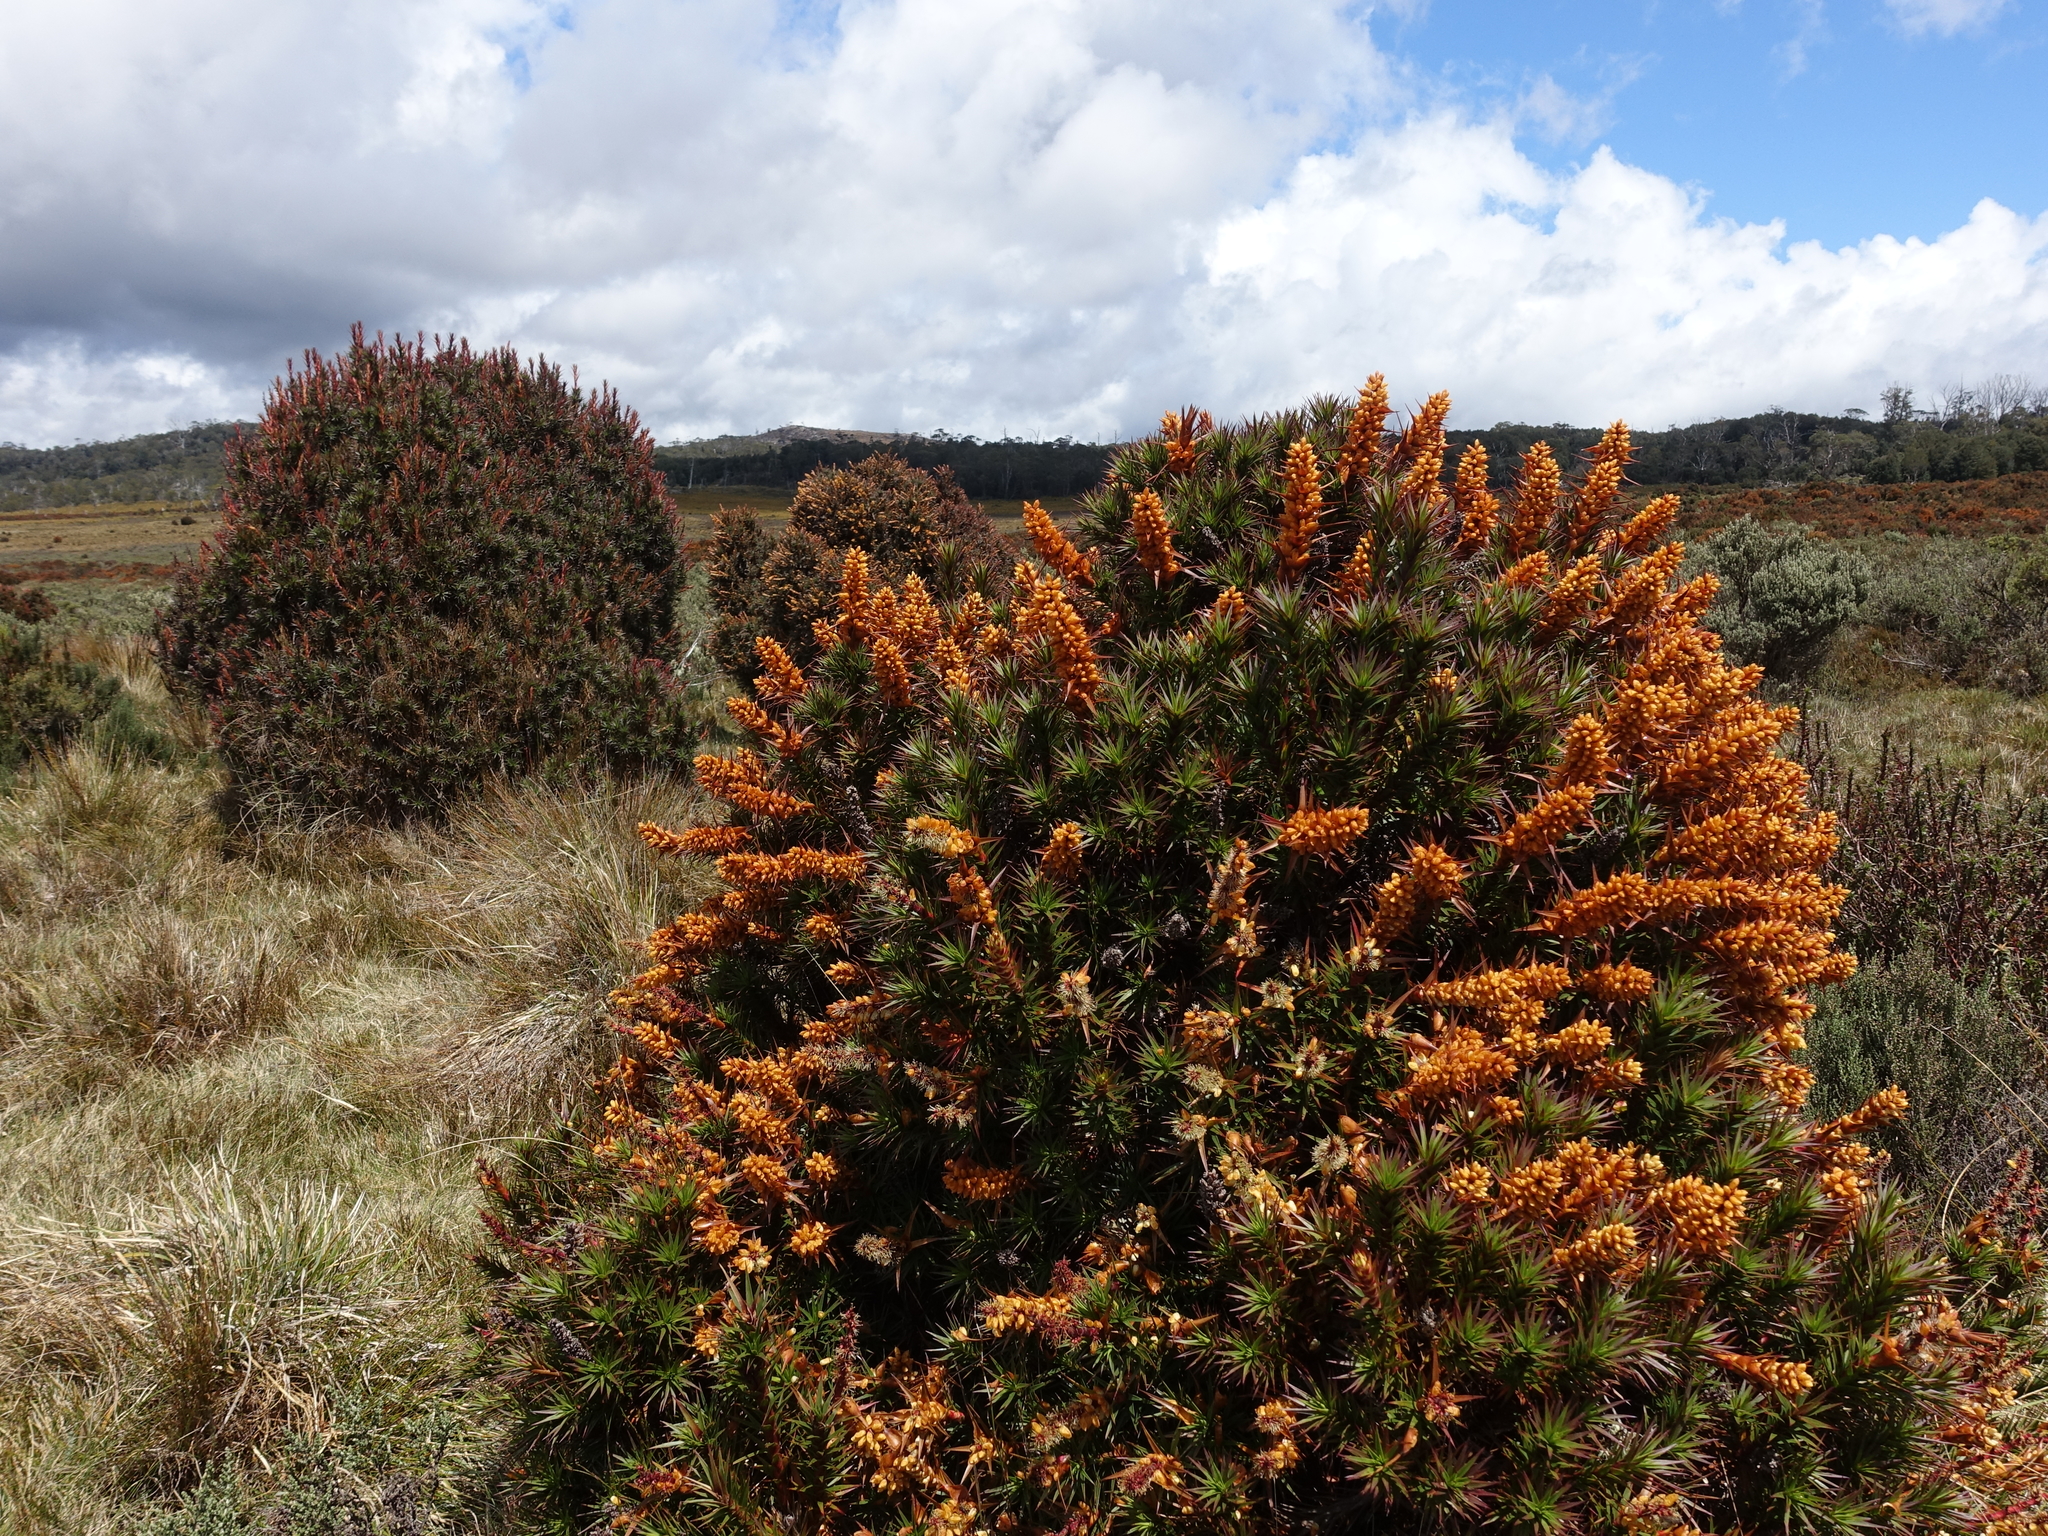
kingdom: Plantae
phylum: Tracheophyta
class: Magnoliopsida
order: Ericales
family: Ericaceae
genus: Dracophyllum
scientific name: Dracophyllum persistentifolium
